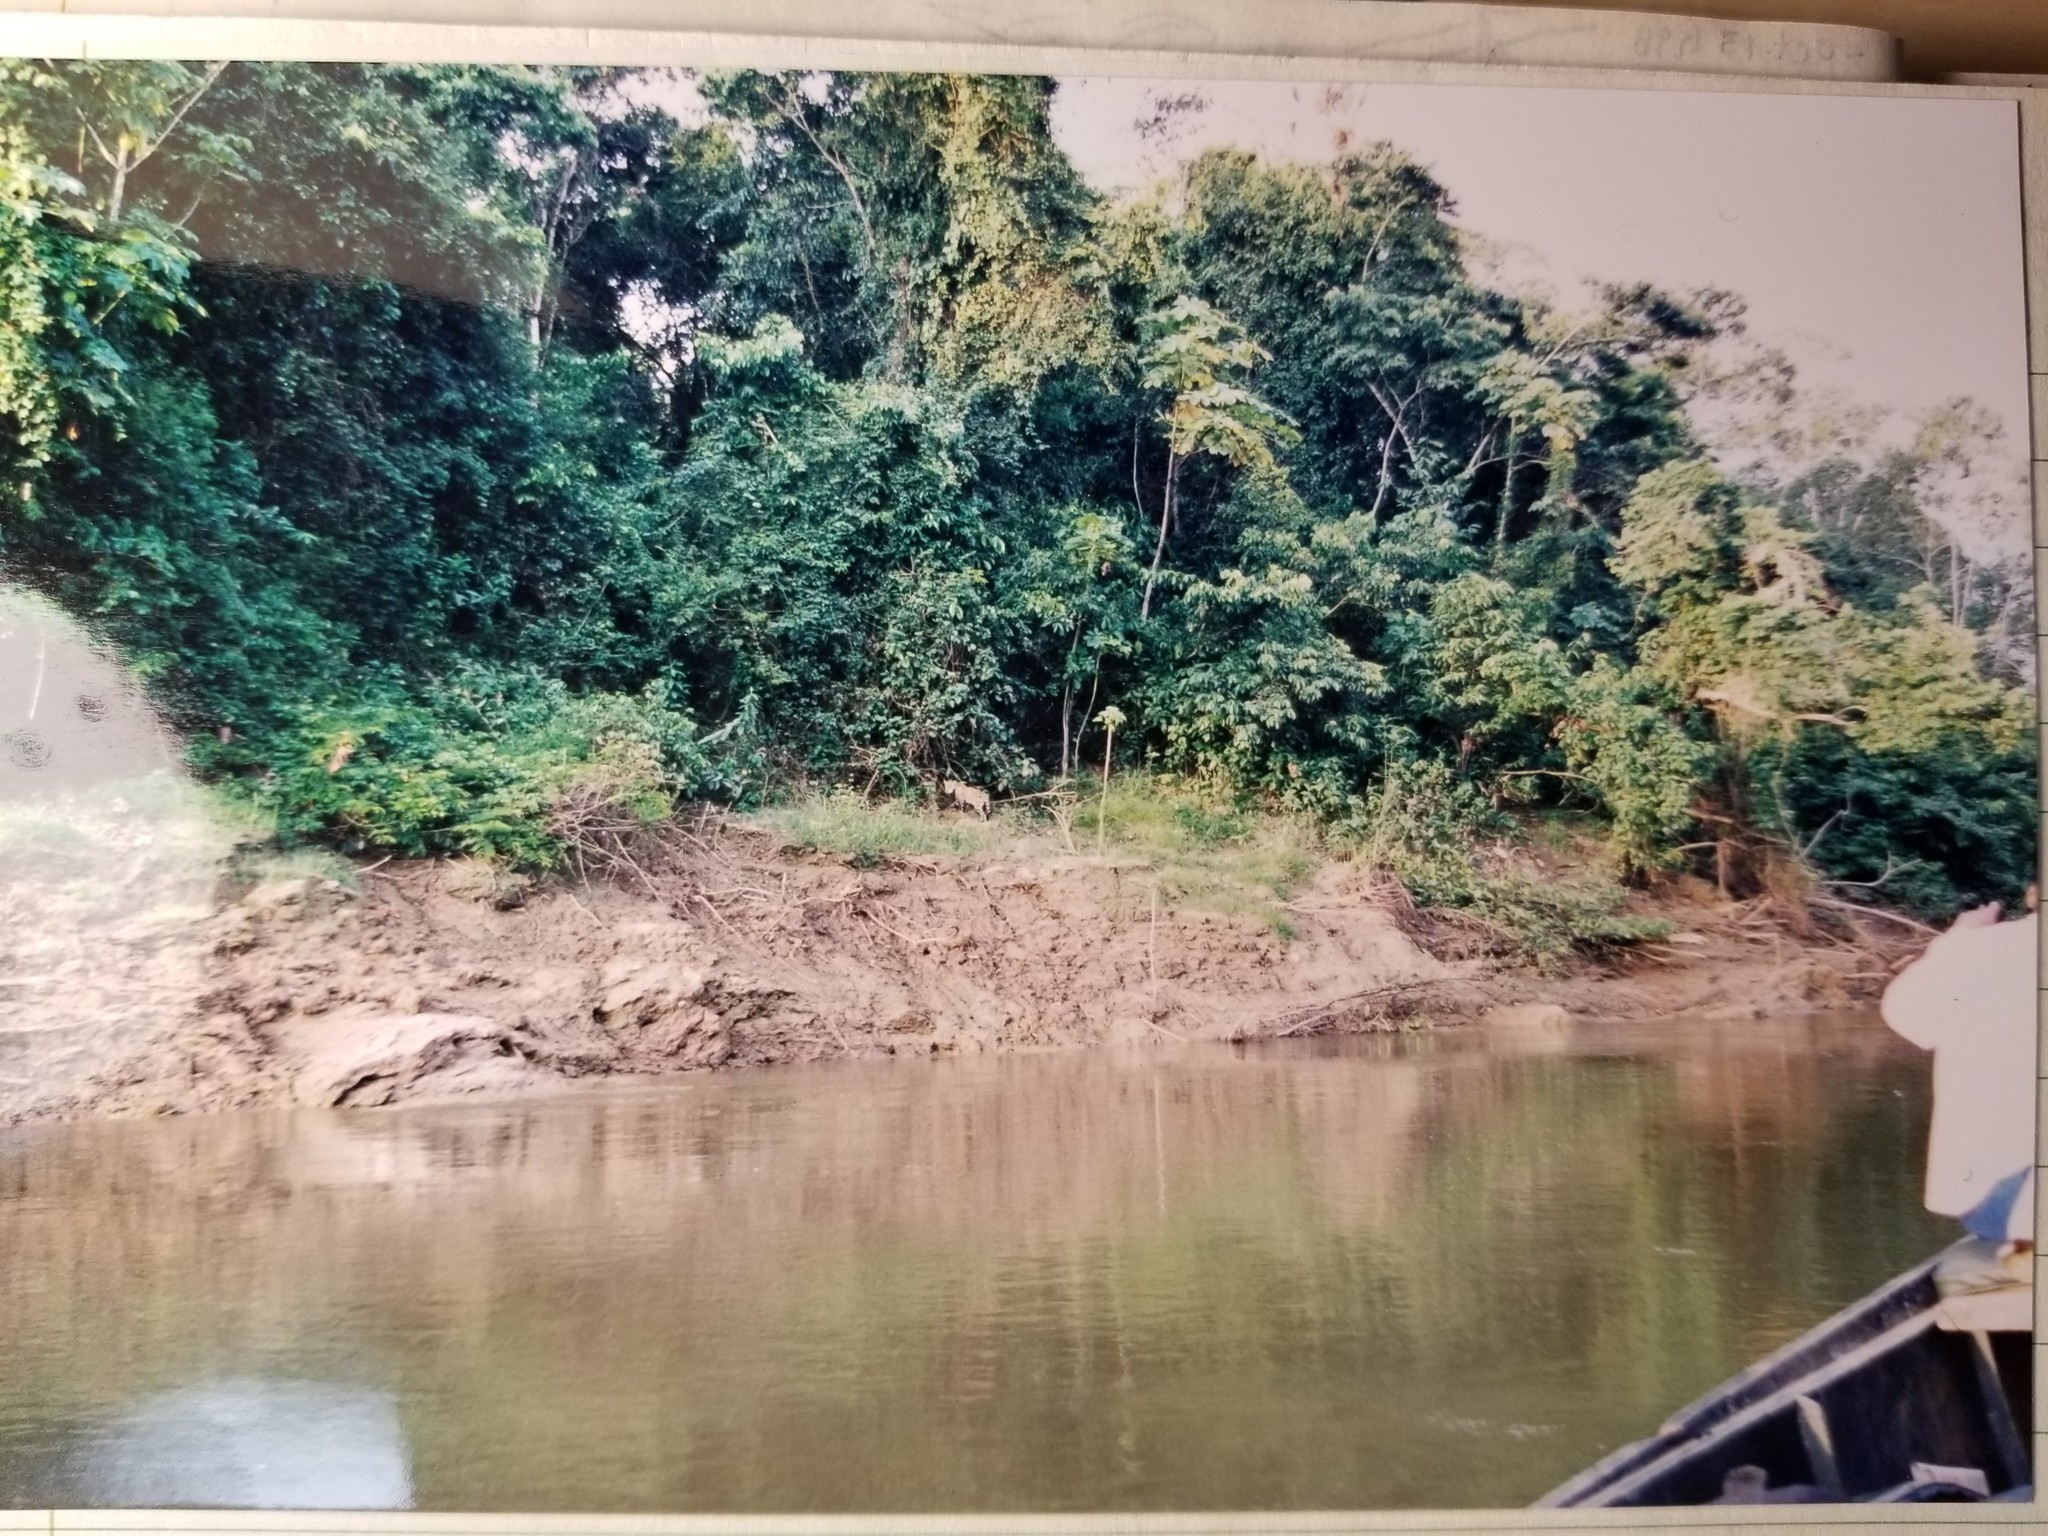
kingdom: Animalia
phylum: Chordata
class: Mammalia
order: Carnivora
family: Felidae
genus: Panthera
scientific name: Panthera onca
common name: Jaguar
